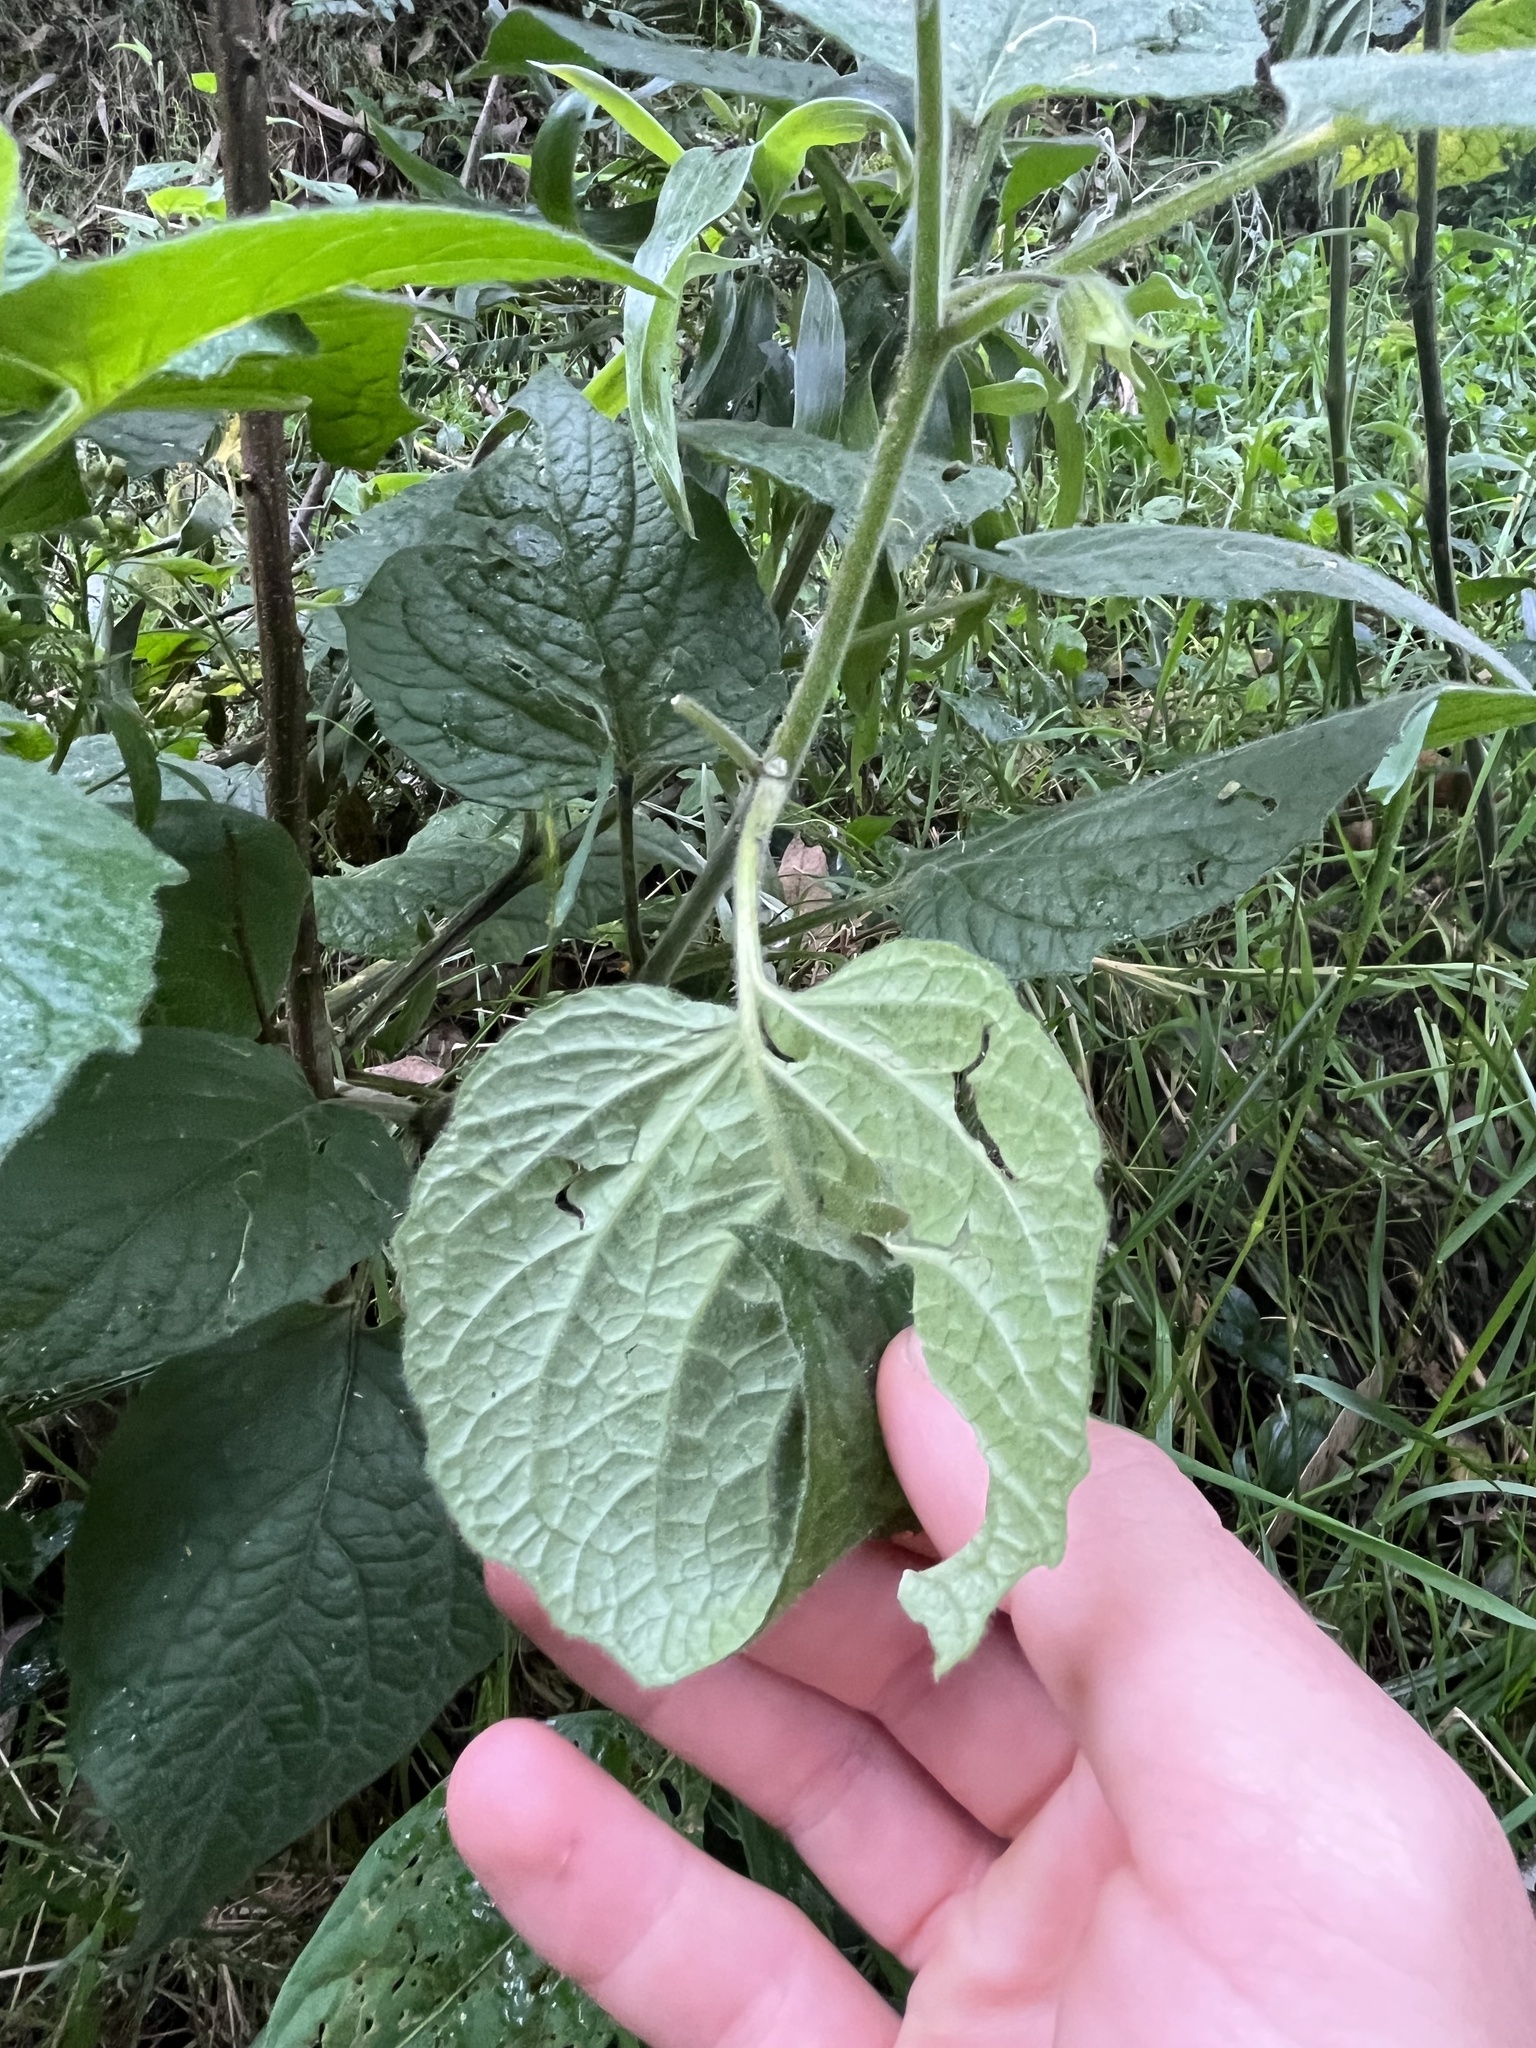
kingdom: Plantae
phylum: Tracheophyta
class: Magnoliopsida
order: Solanales
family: Solanaceae
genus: Physalis
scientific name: Physalis peruviana
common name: Cape-gooseberry
